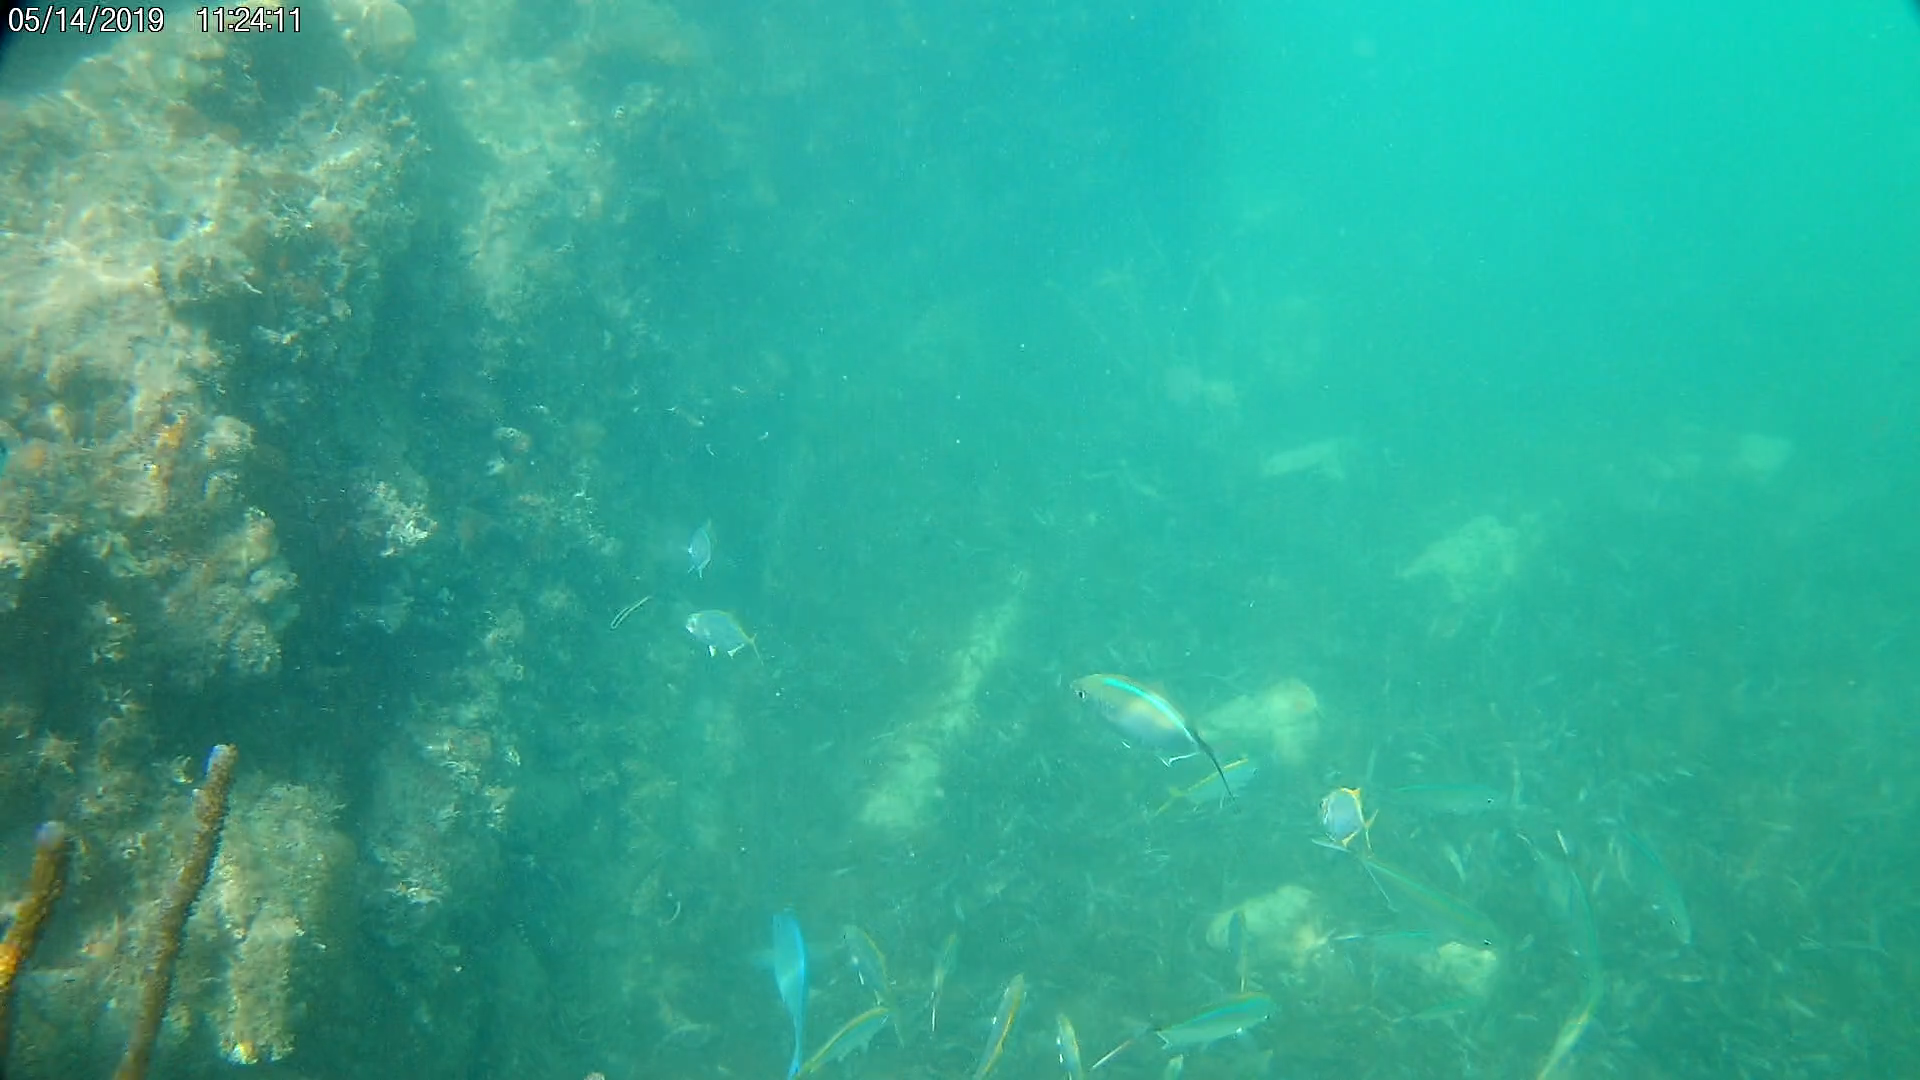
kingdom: Animalia
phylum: Chordata
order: Perciformes
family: Carangidae
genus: Caranx
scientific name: Caranx ruber
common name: Bar jack
